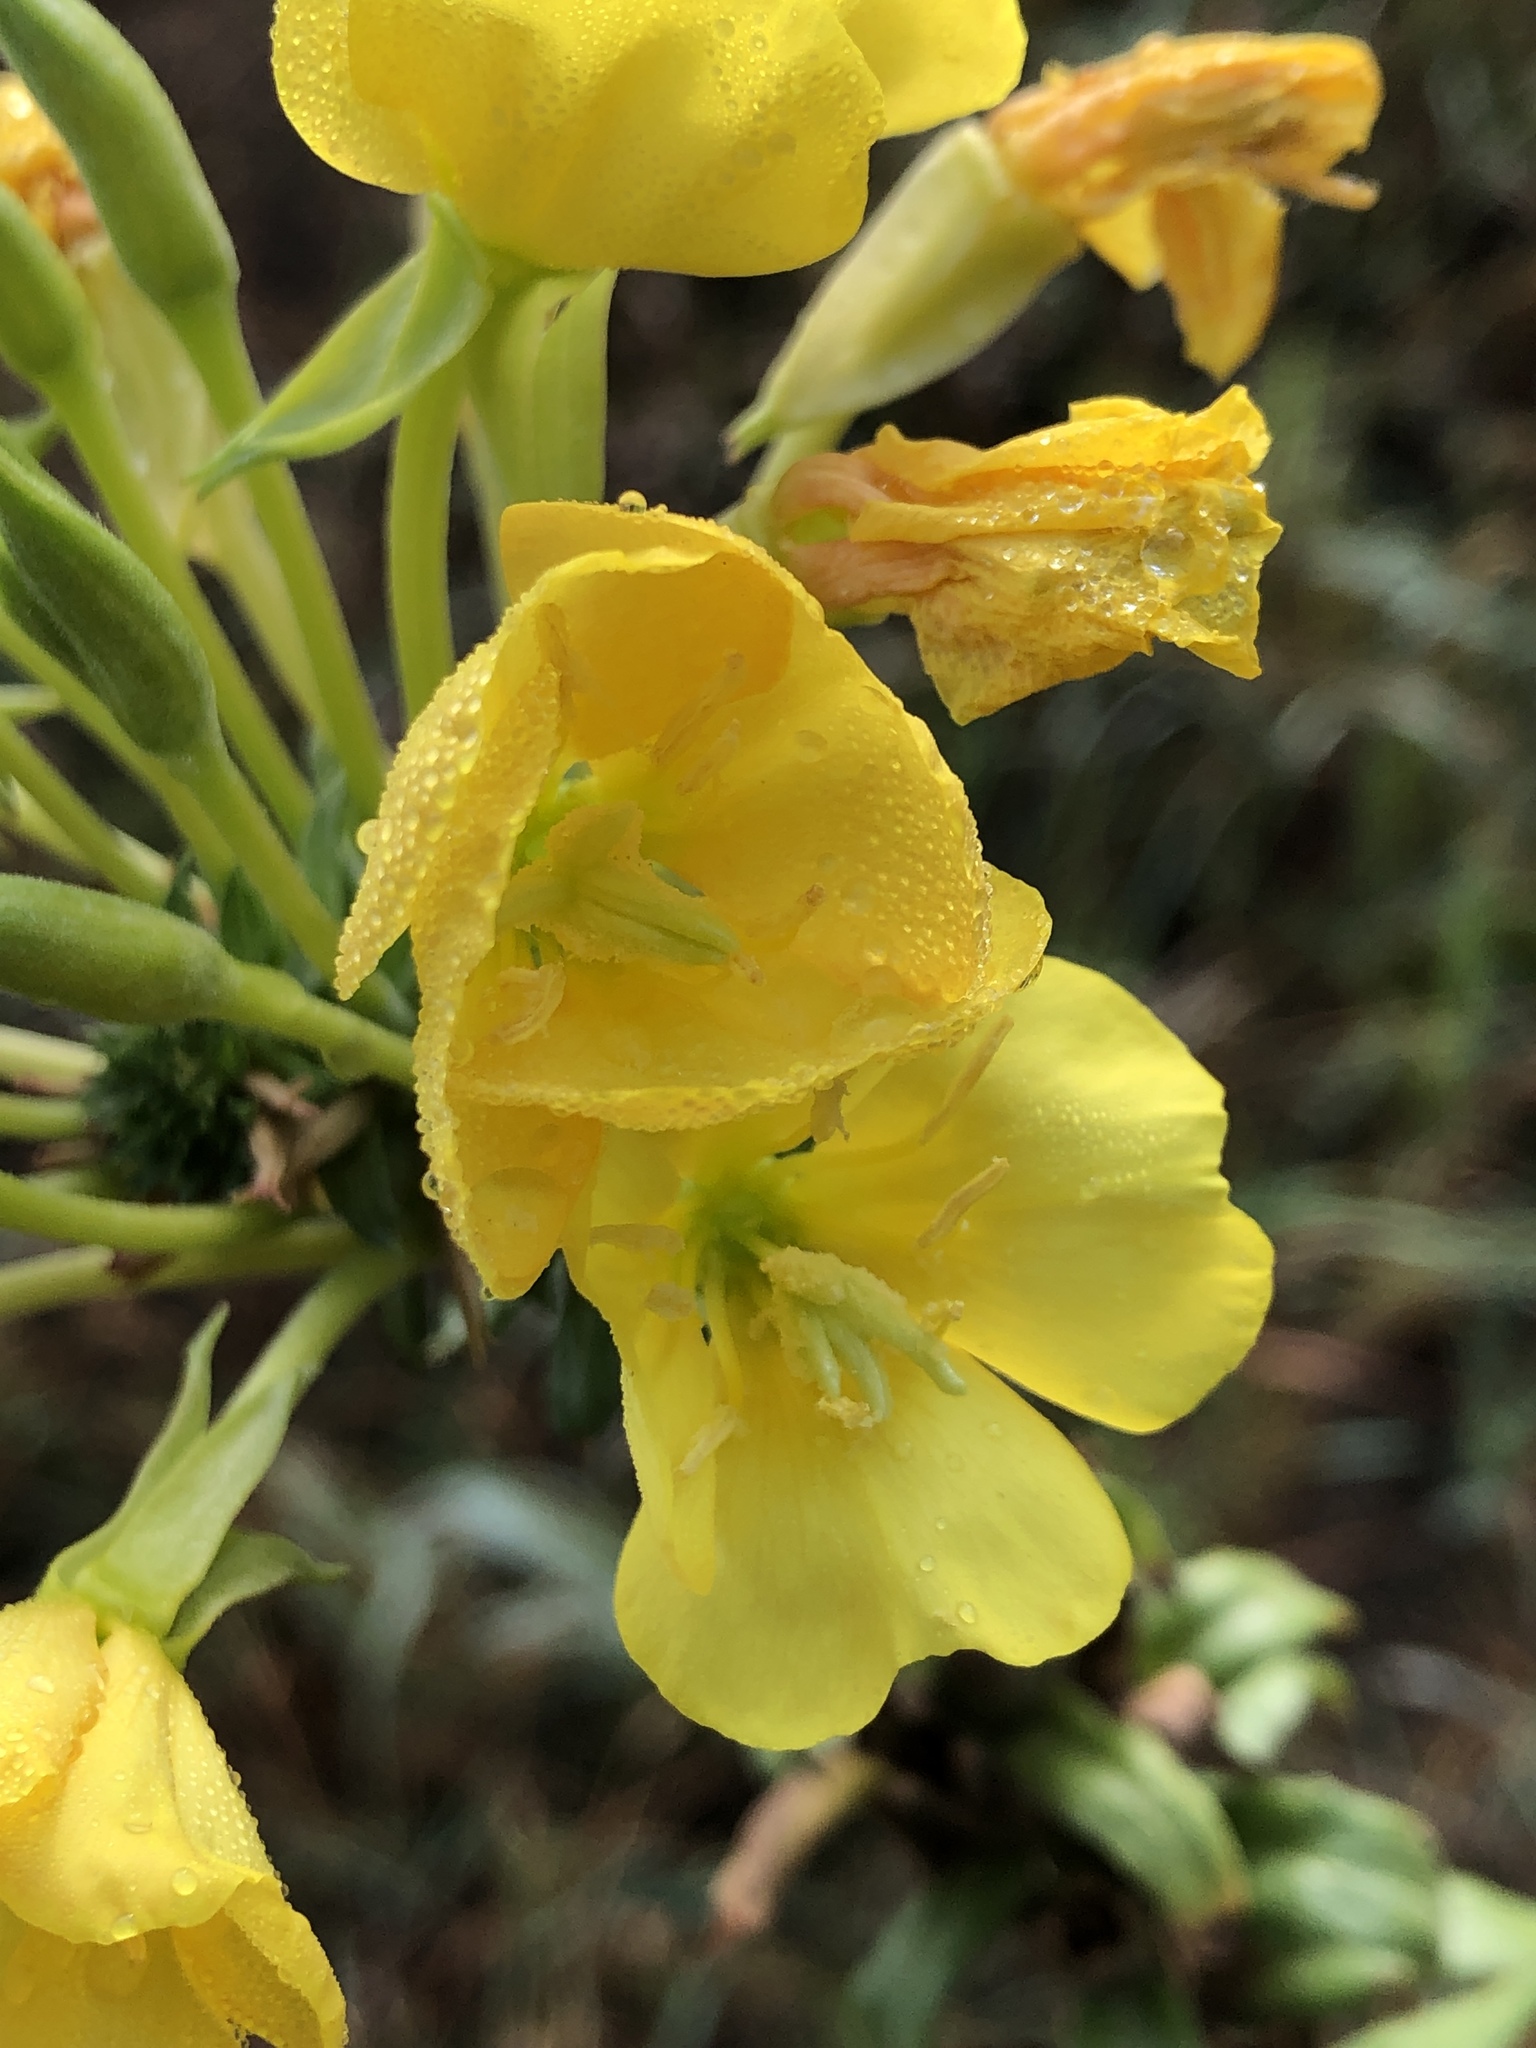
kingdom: Plantae
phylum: Tracheophyta
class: Magnoliopsida
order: Myrtales
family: Onagraceae
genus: Oenothera
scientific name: Oenothera biennis
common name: Common evening-primrose
